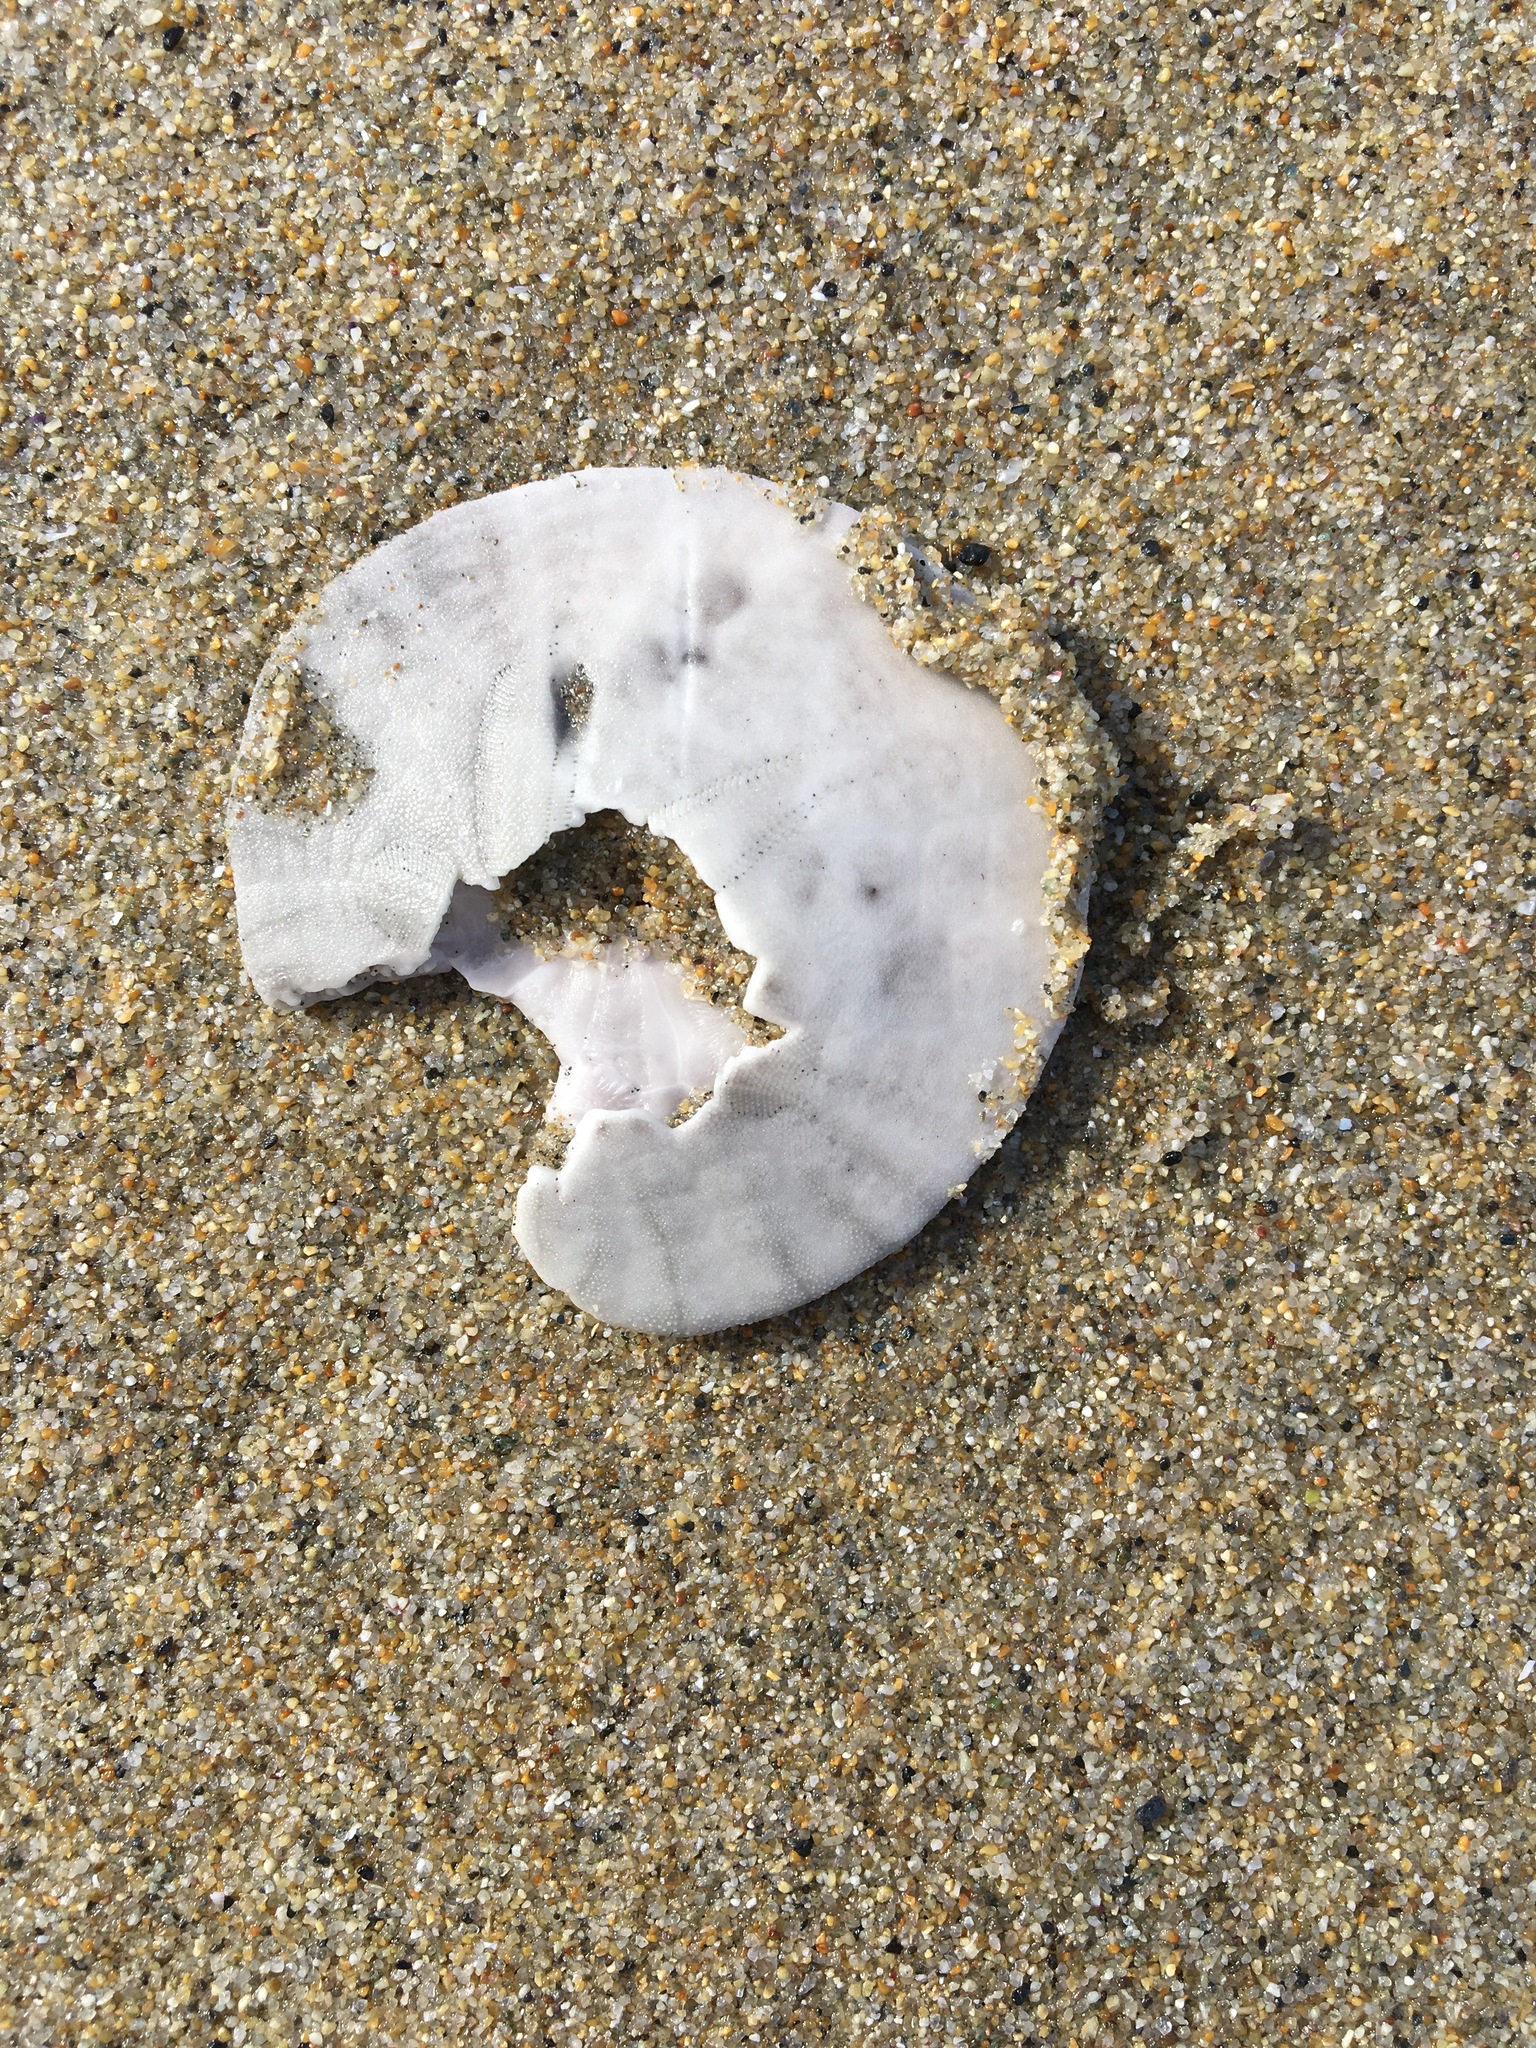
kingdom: Animalia
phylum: Echinodermata
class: Echinoidea
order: Echinolampadacea
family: Dendrasteridae
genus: Dendraster
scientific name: Dendraster excentricus
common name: Eccentric sand dollar sea urchin
